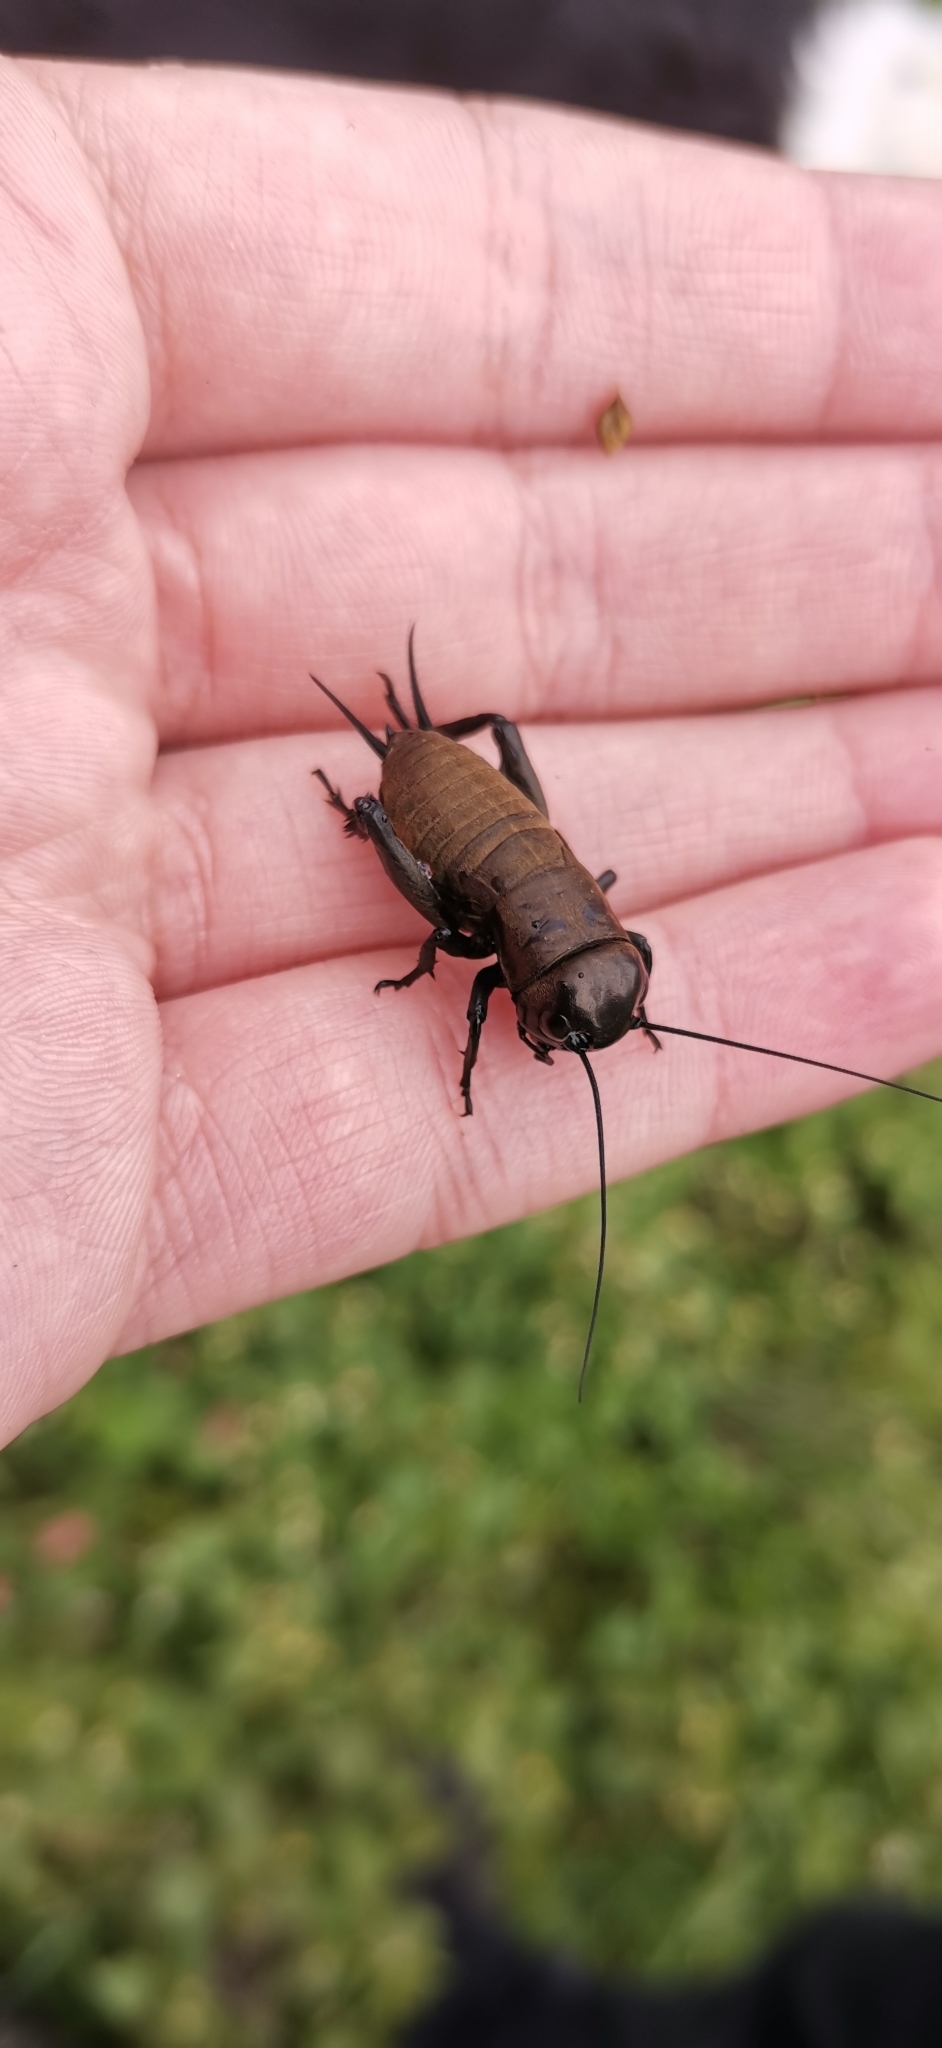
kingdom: Animalia
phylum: Arthropoda
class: Insecta
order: Orthoptera
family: Gryllidae
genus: Gryllus
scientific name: Gryllus campestris
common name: Field cricket
